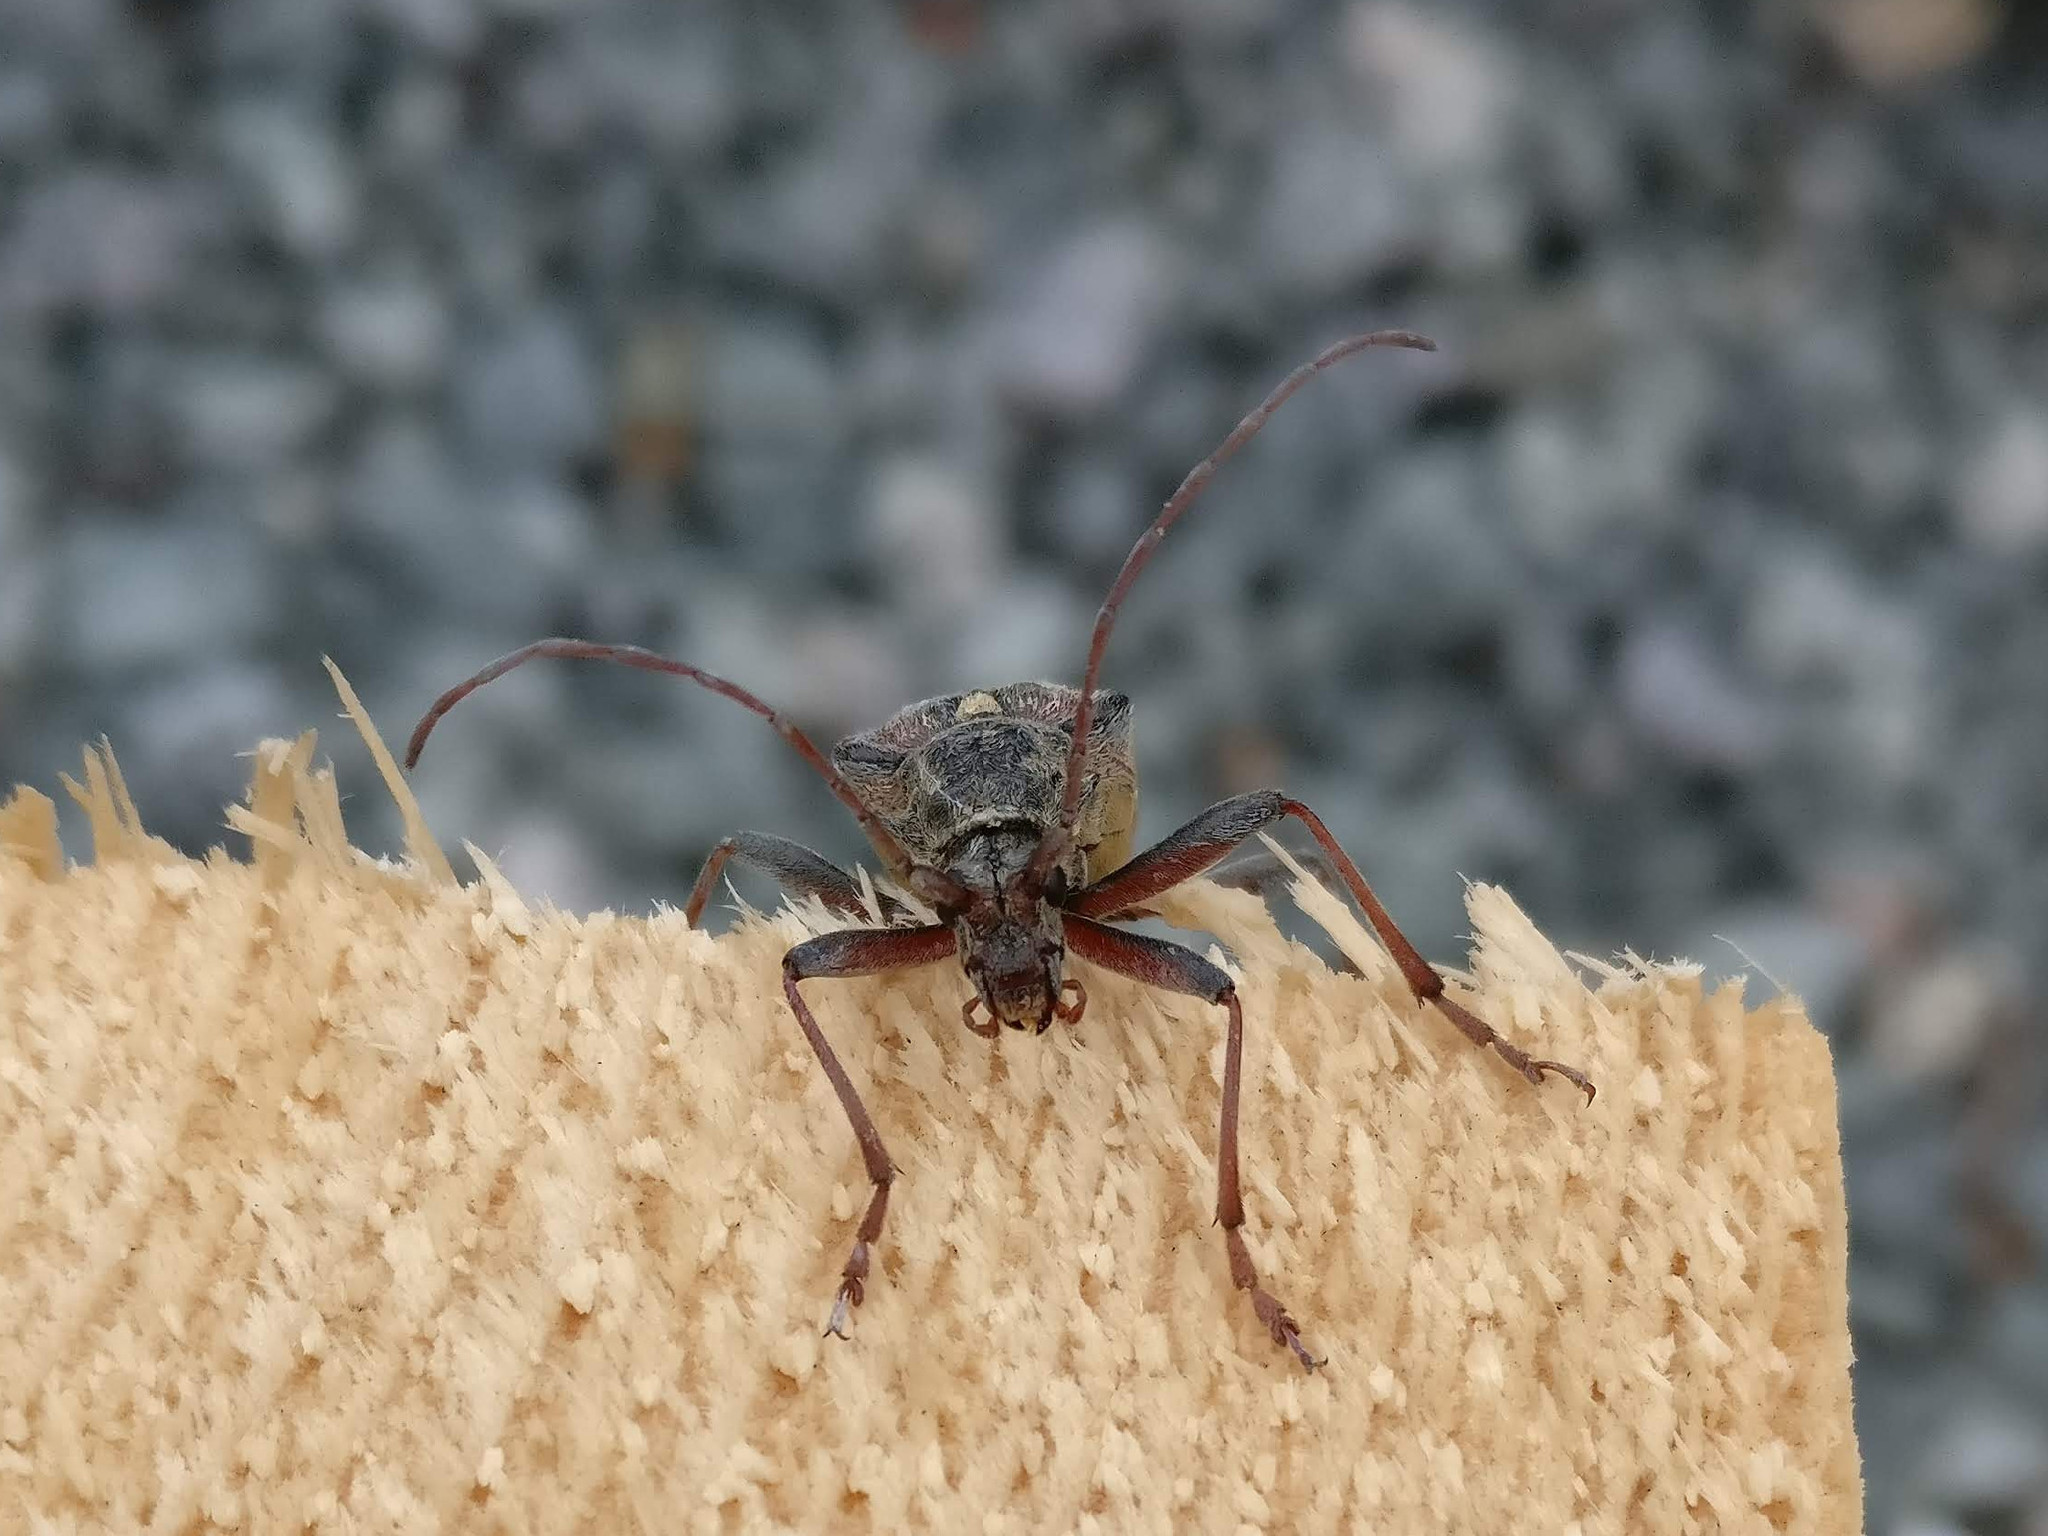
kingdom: Animalia
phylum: Arthropoda
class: Insecta
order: Coleoptera
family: Cerambycidae
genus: Oxymirus
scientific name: Oxymirus cursor
